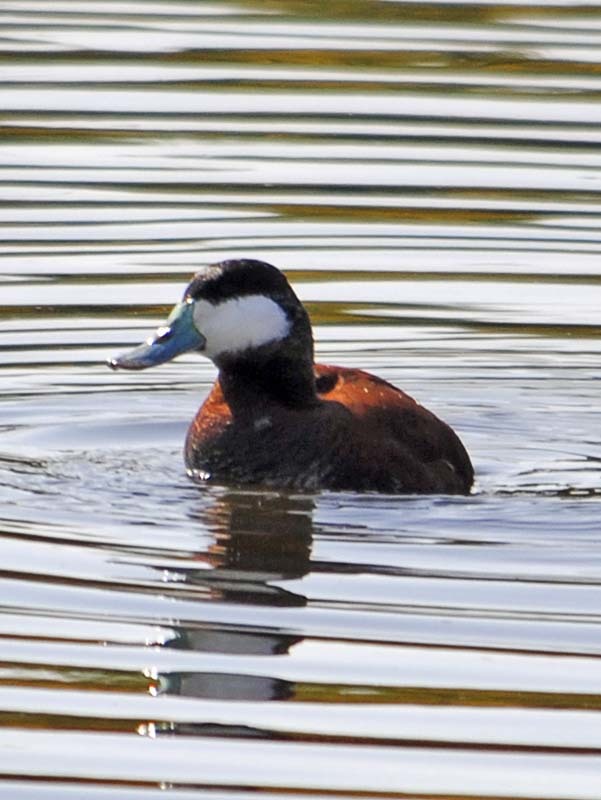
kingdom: Animalia
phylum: Chordata
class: Aves
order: Anseriformes
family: Anatidae
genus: Oxyura
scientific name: Oxyura jamaicensis
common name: Ruddy duck
